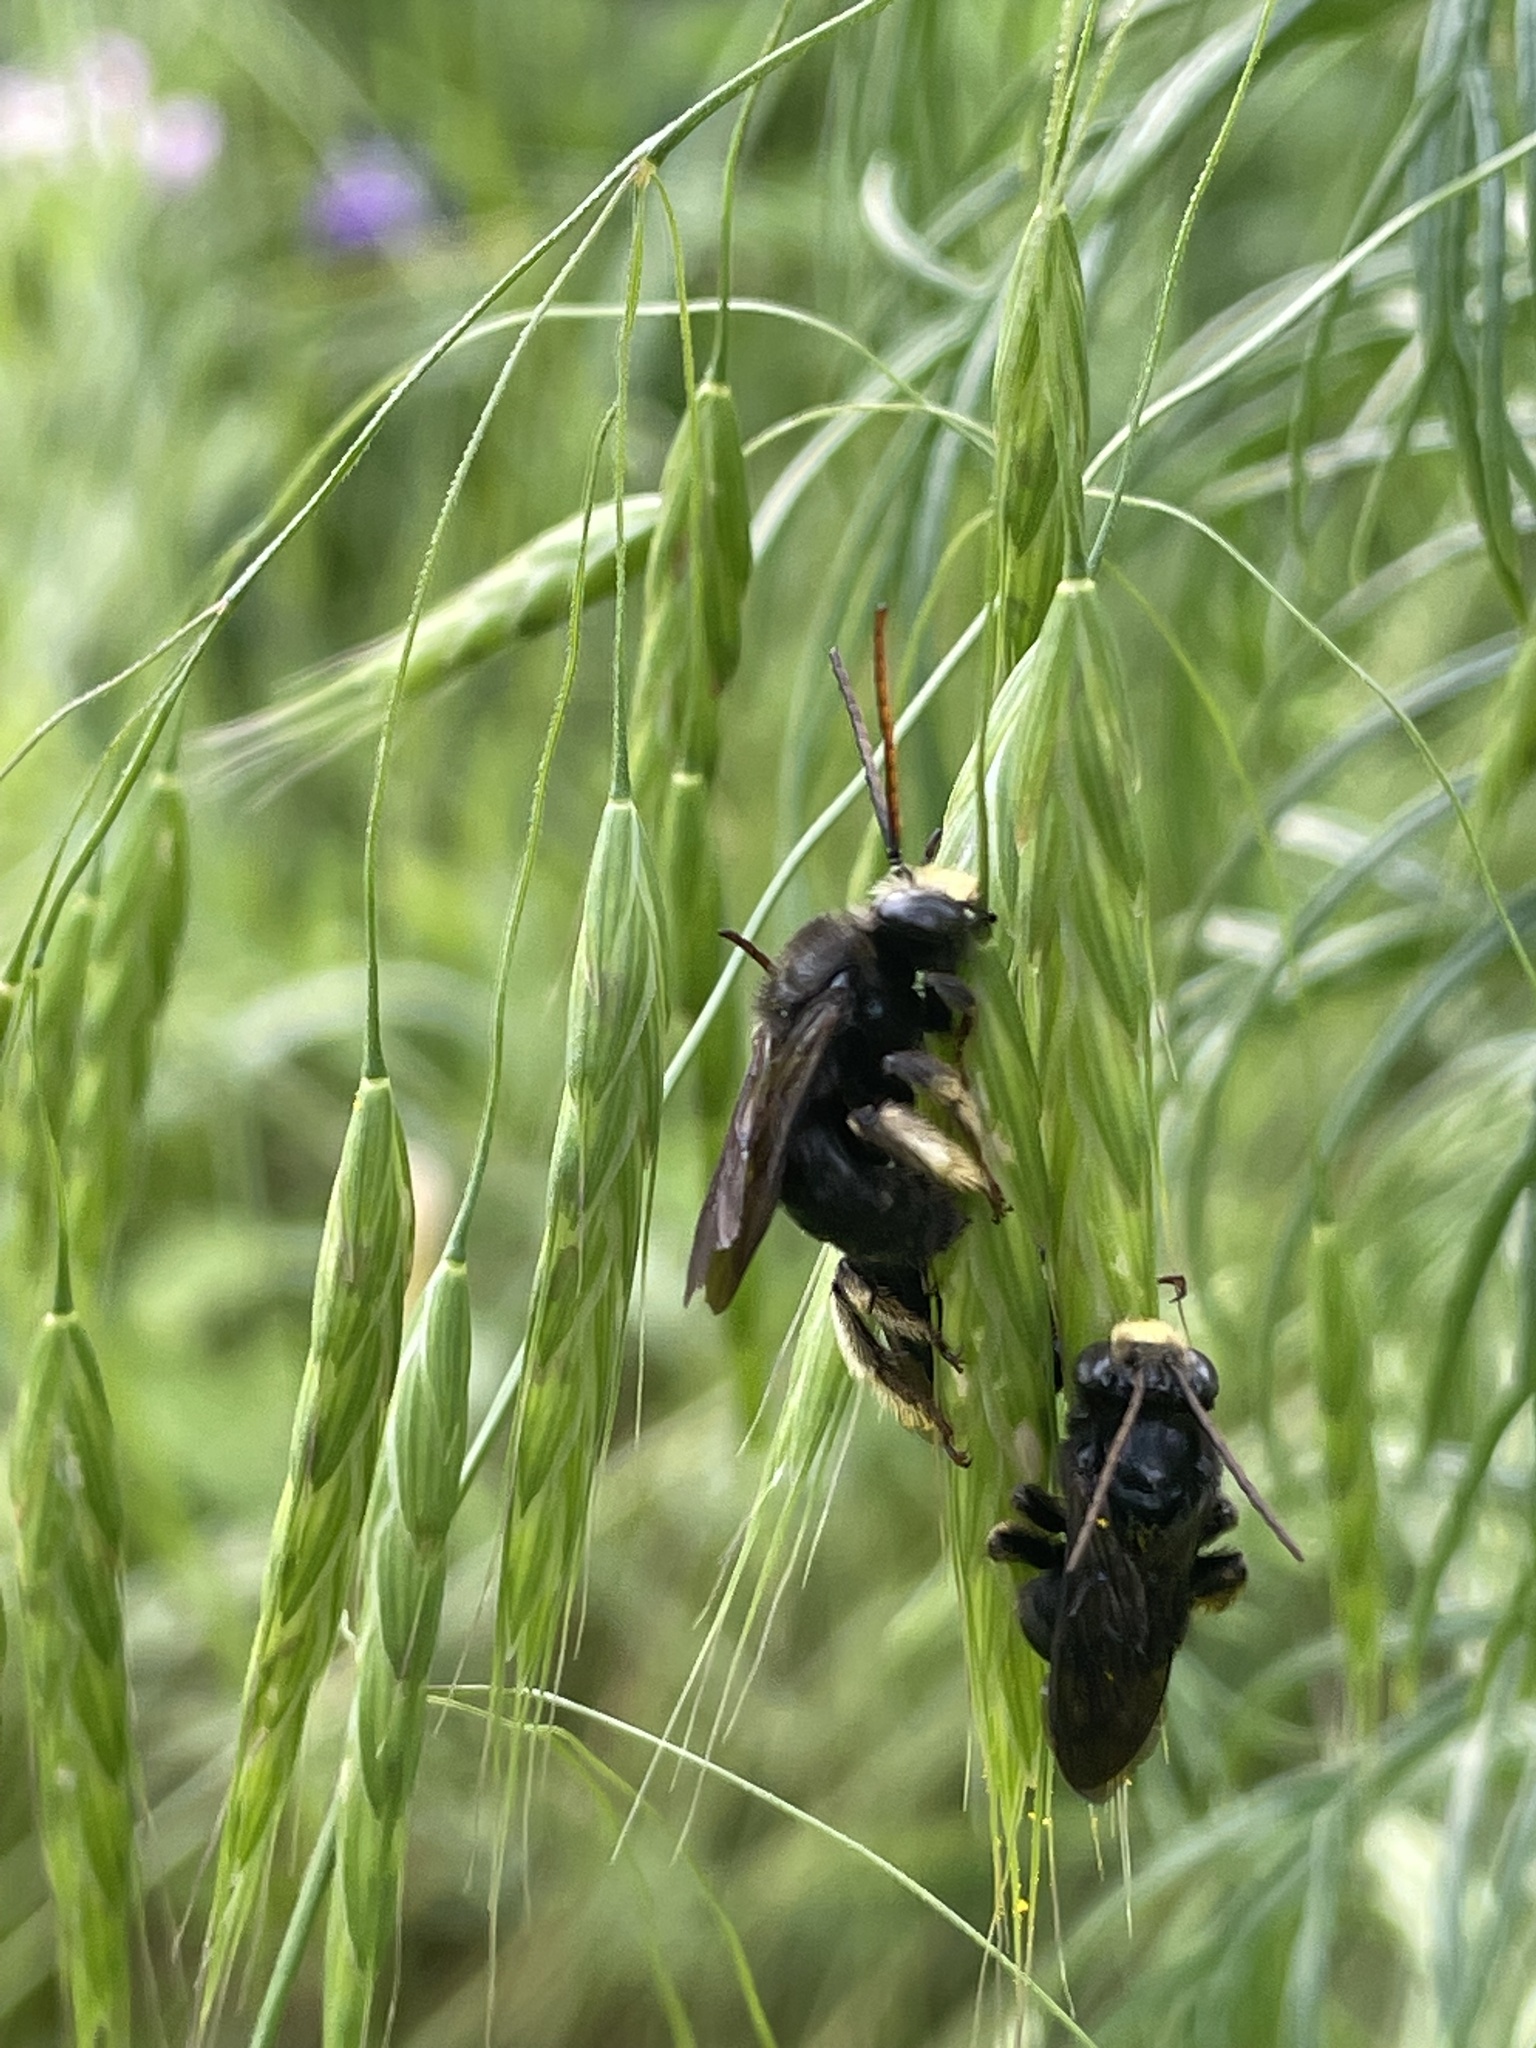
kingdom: Animalia
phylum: Arthropoda
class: Insecta
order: Hymenoptera
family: Apidae
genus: Melissodes
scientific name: Melissodes bimaculatus
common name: Two-spotted long-horned bee
